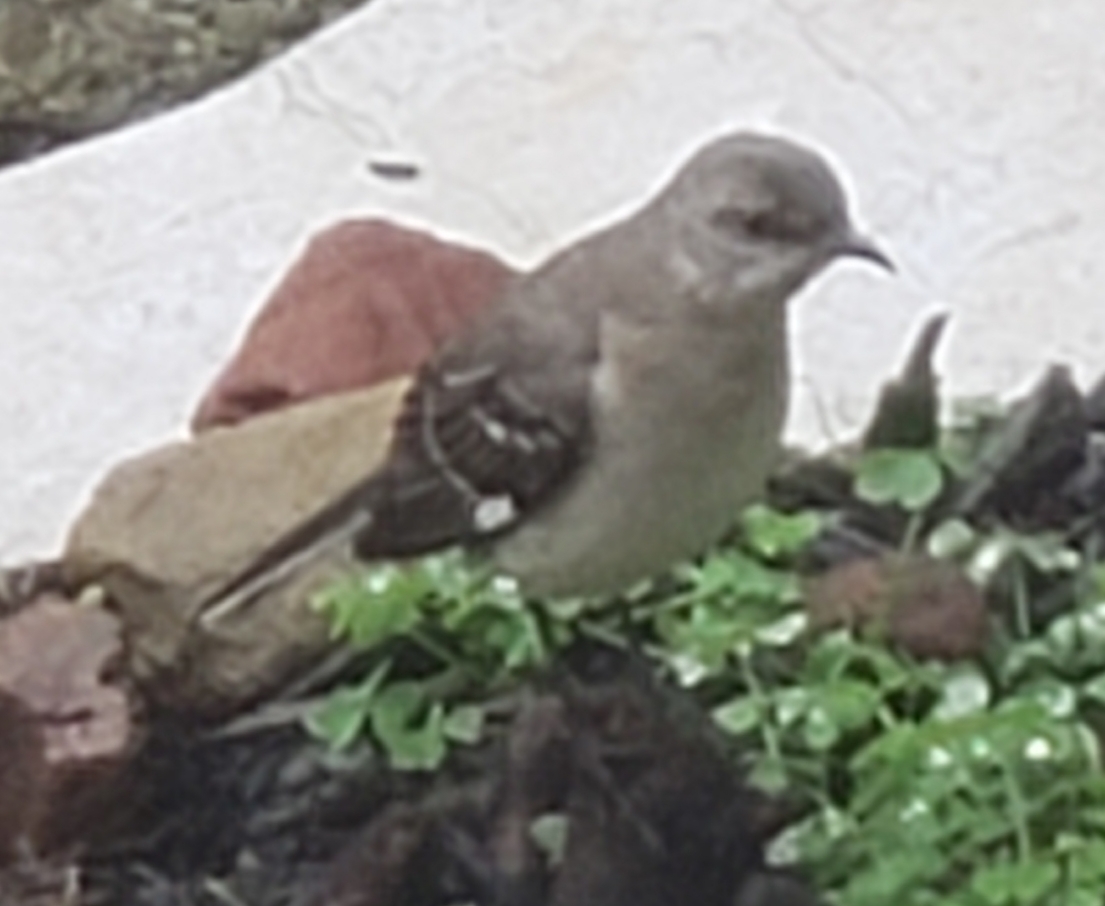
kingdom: Animalia
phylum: Chordata
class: Aves
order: Passeriformes
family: Mimidae
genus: Mimus
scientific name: Mimus polyglottos
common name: Northern mockingbird
